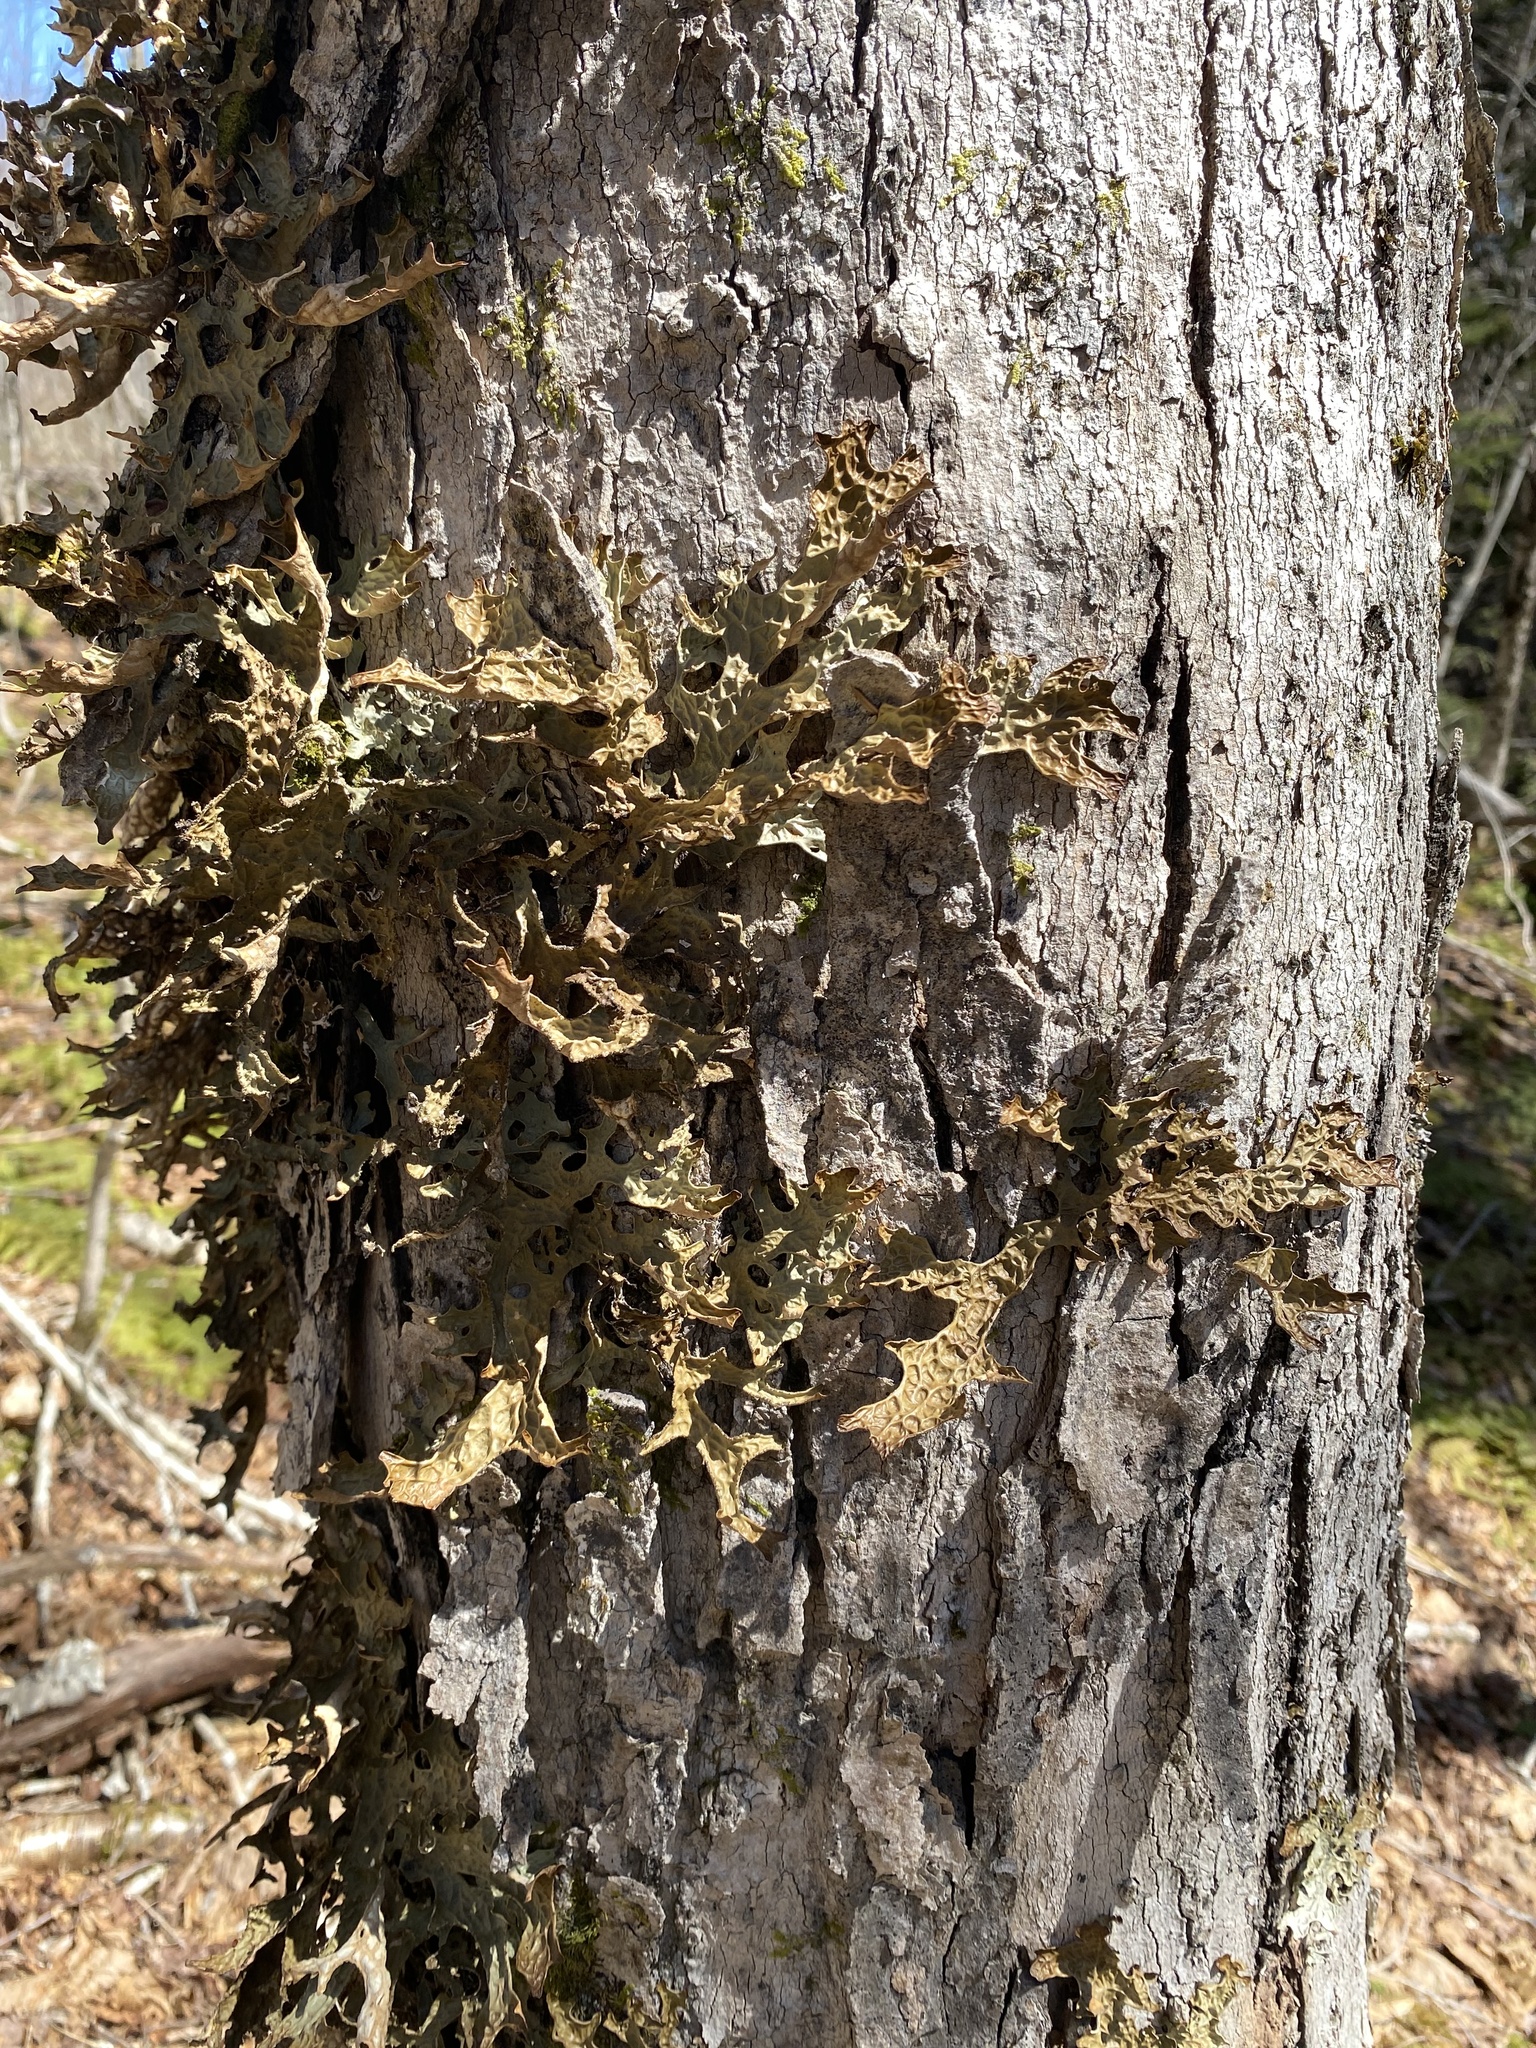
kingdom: Fungi
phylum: Ascomycota
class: Lecanoromycetes
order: Peltigerales
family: Lobariaceae
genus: Lobaria
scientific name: Lobaria pulmonaria
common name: Lungwort
